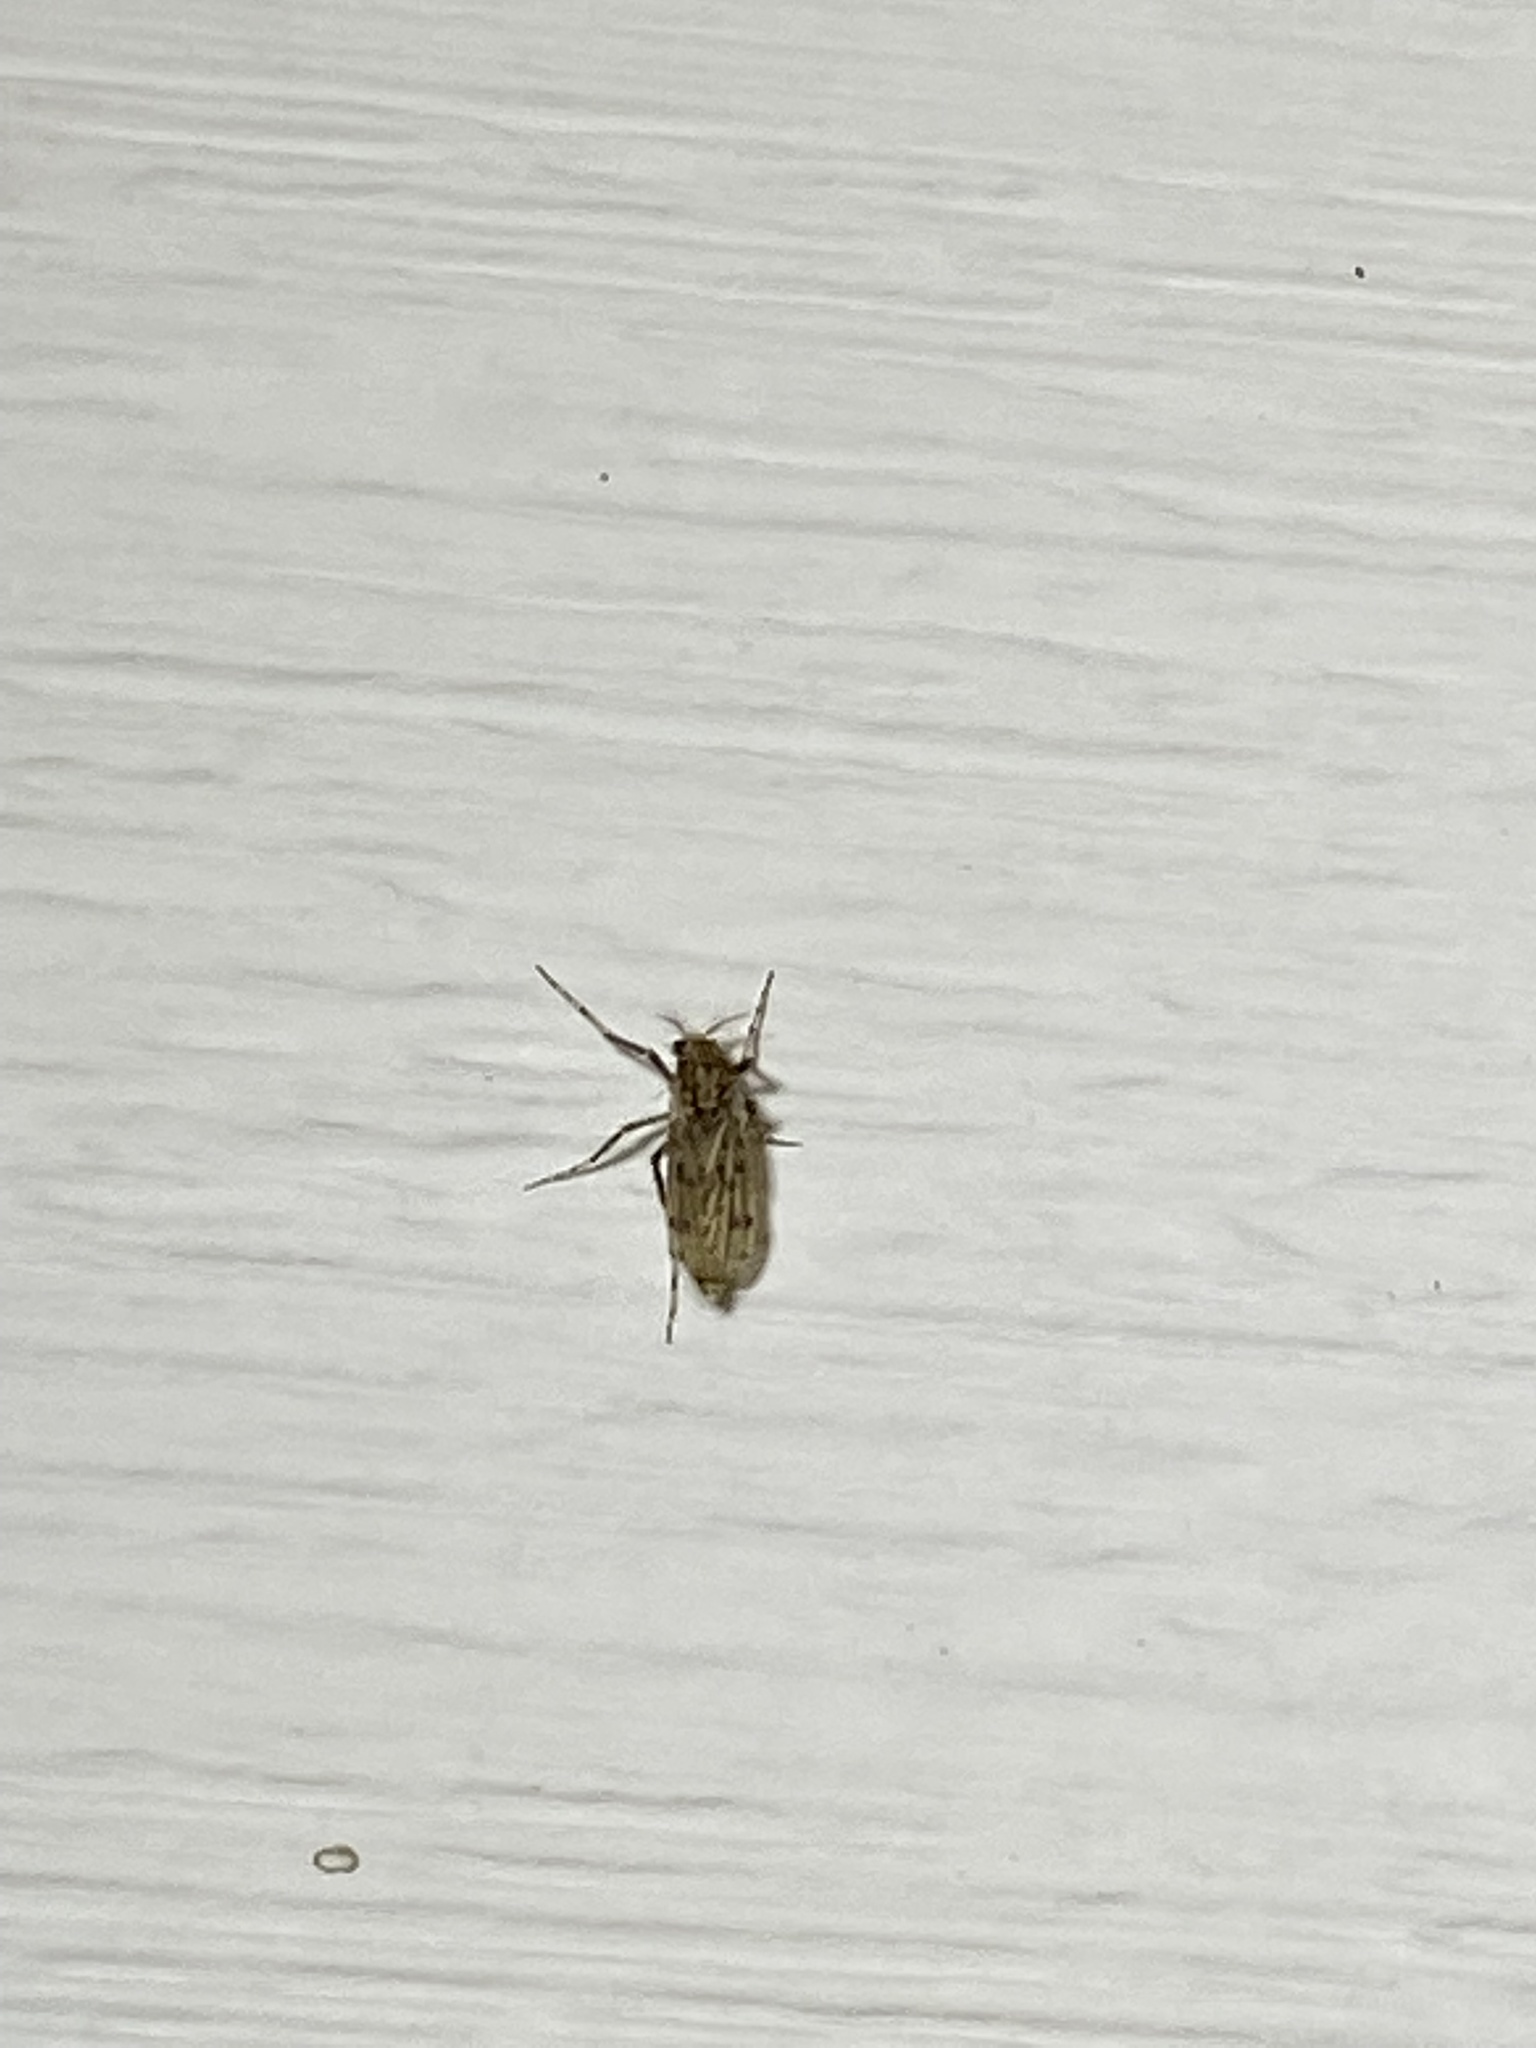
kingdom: Animalia
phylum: Arthropoda
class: Insecta
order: Diptera
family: Chaoboridae
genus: Chaoborus
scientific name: Chaoborus punctipennis
